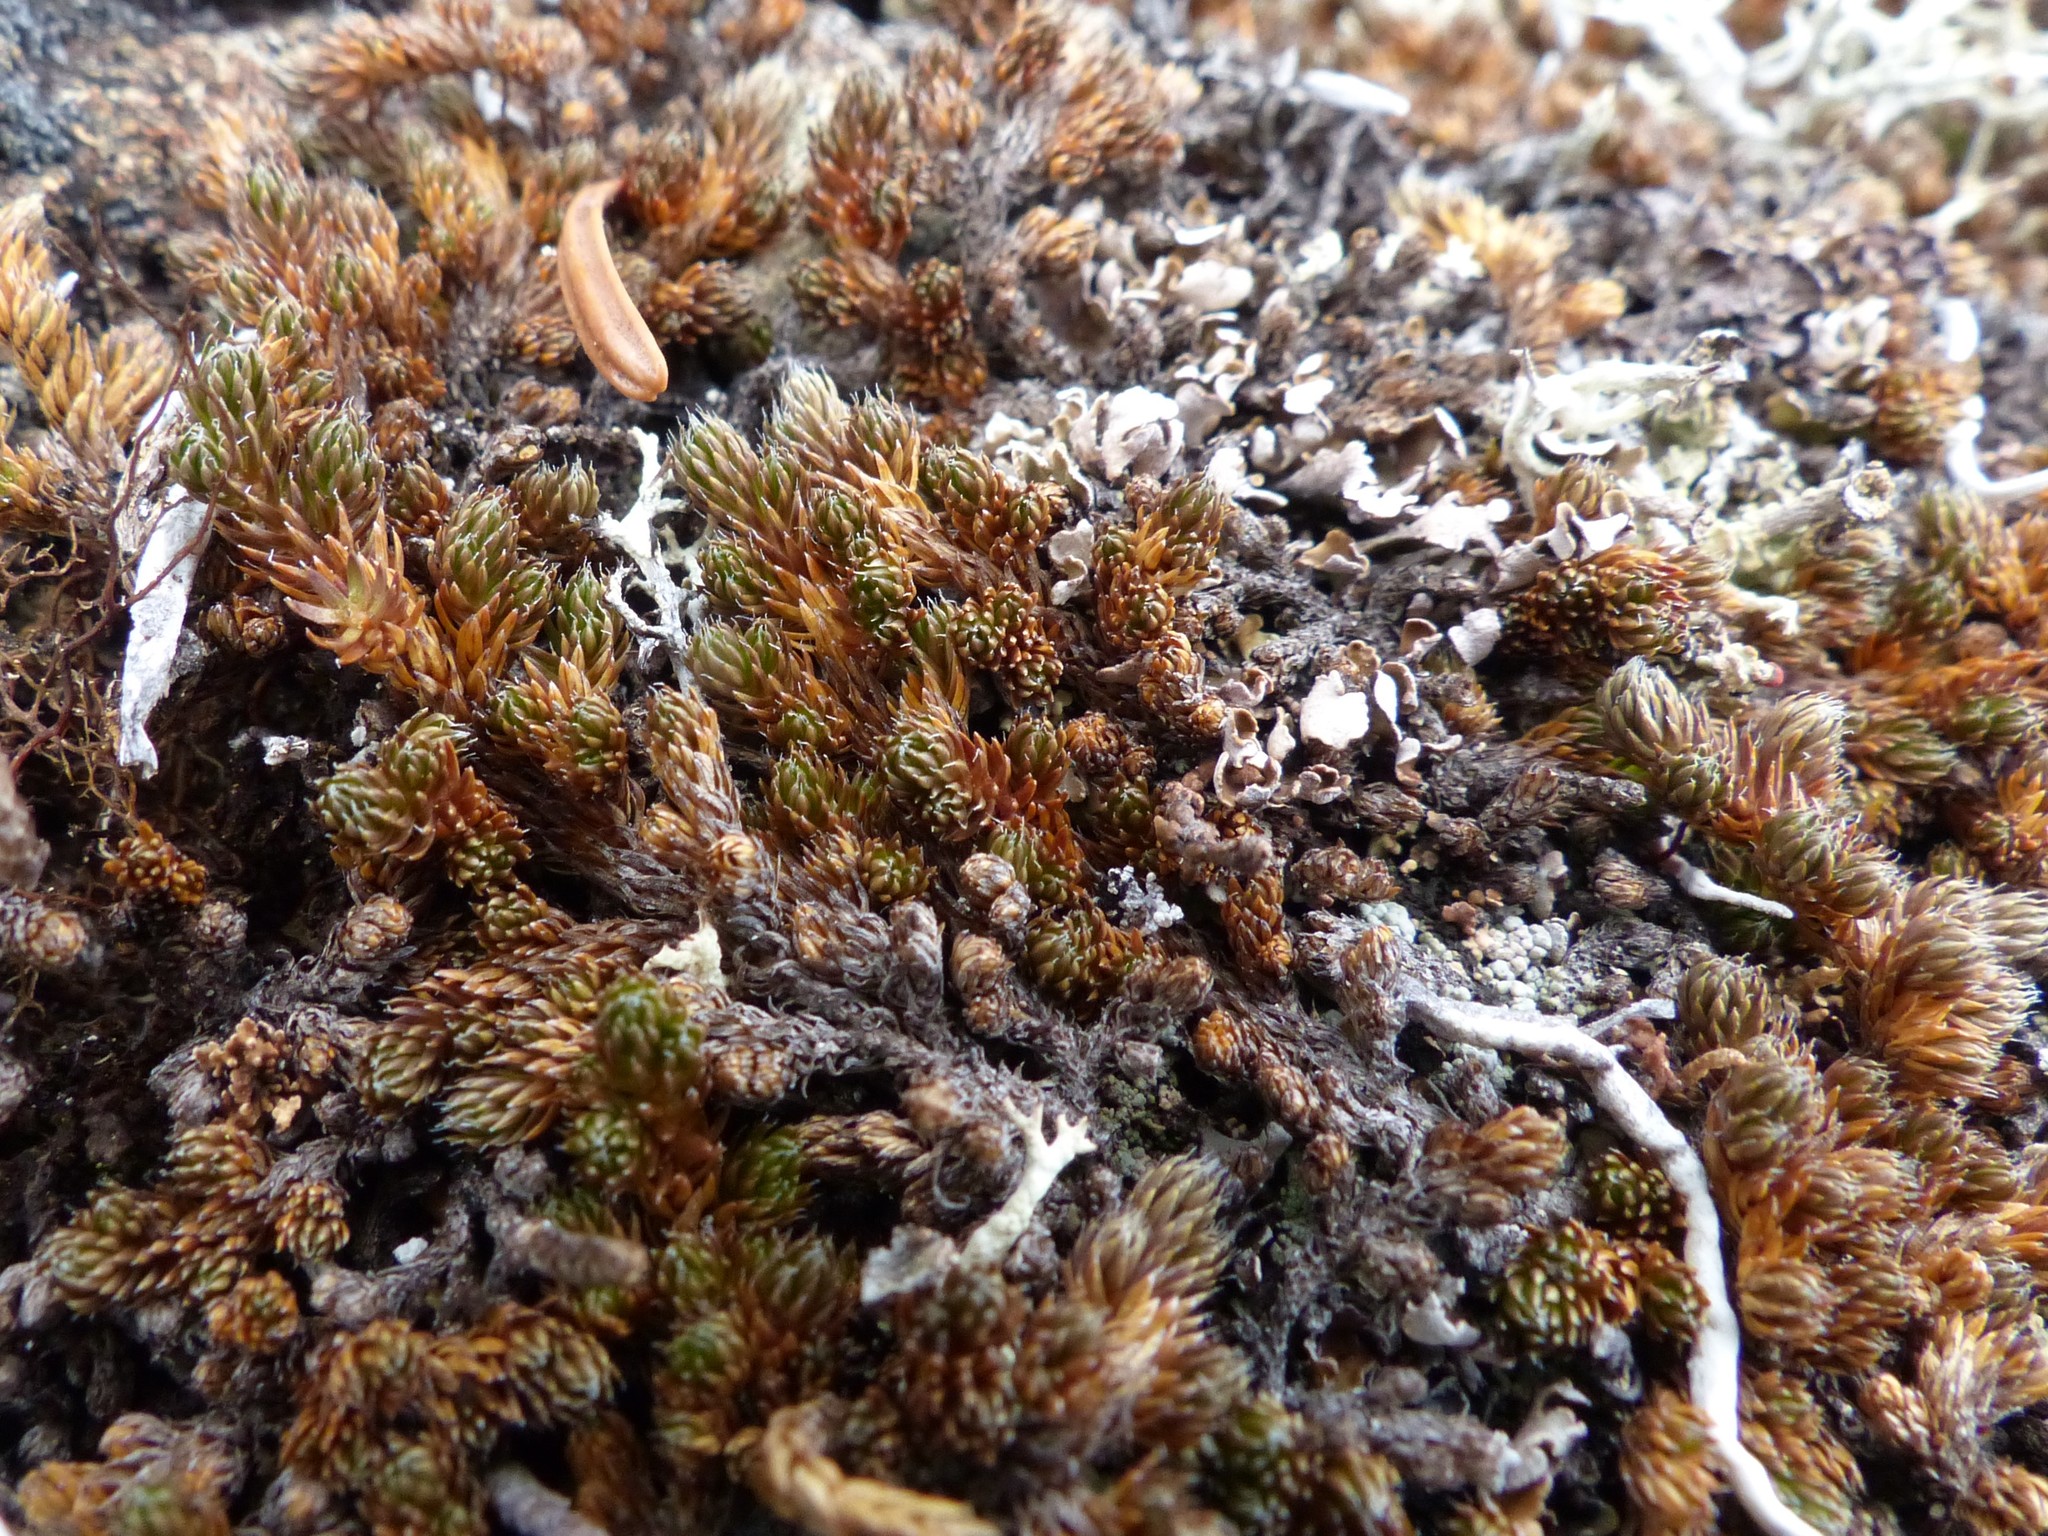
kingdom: Plantae
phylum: Tracheophyta
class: Lycopodiopsida
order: Selaginellales
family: Selaginellaceae
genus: Selaginella
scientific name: Selaginella densa
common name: Mountain spike-moss
